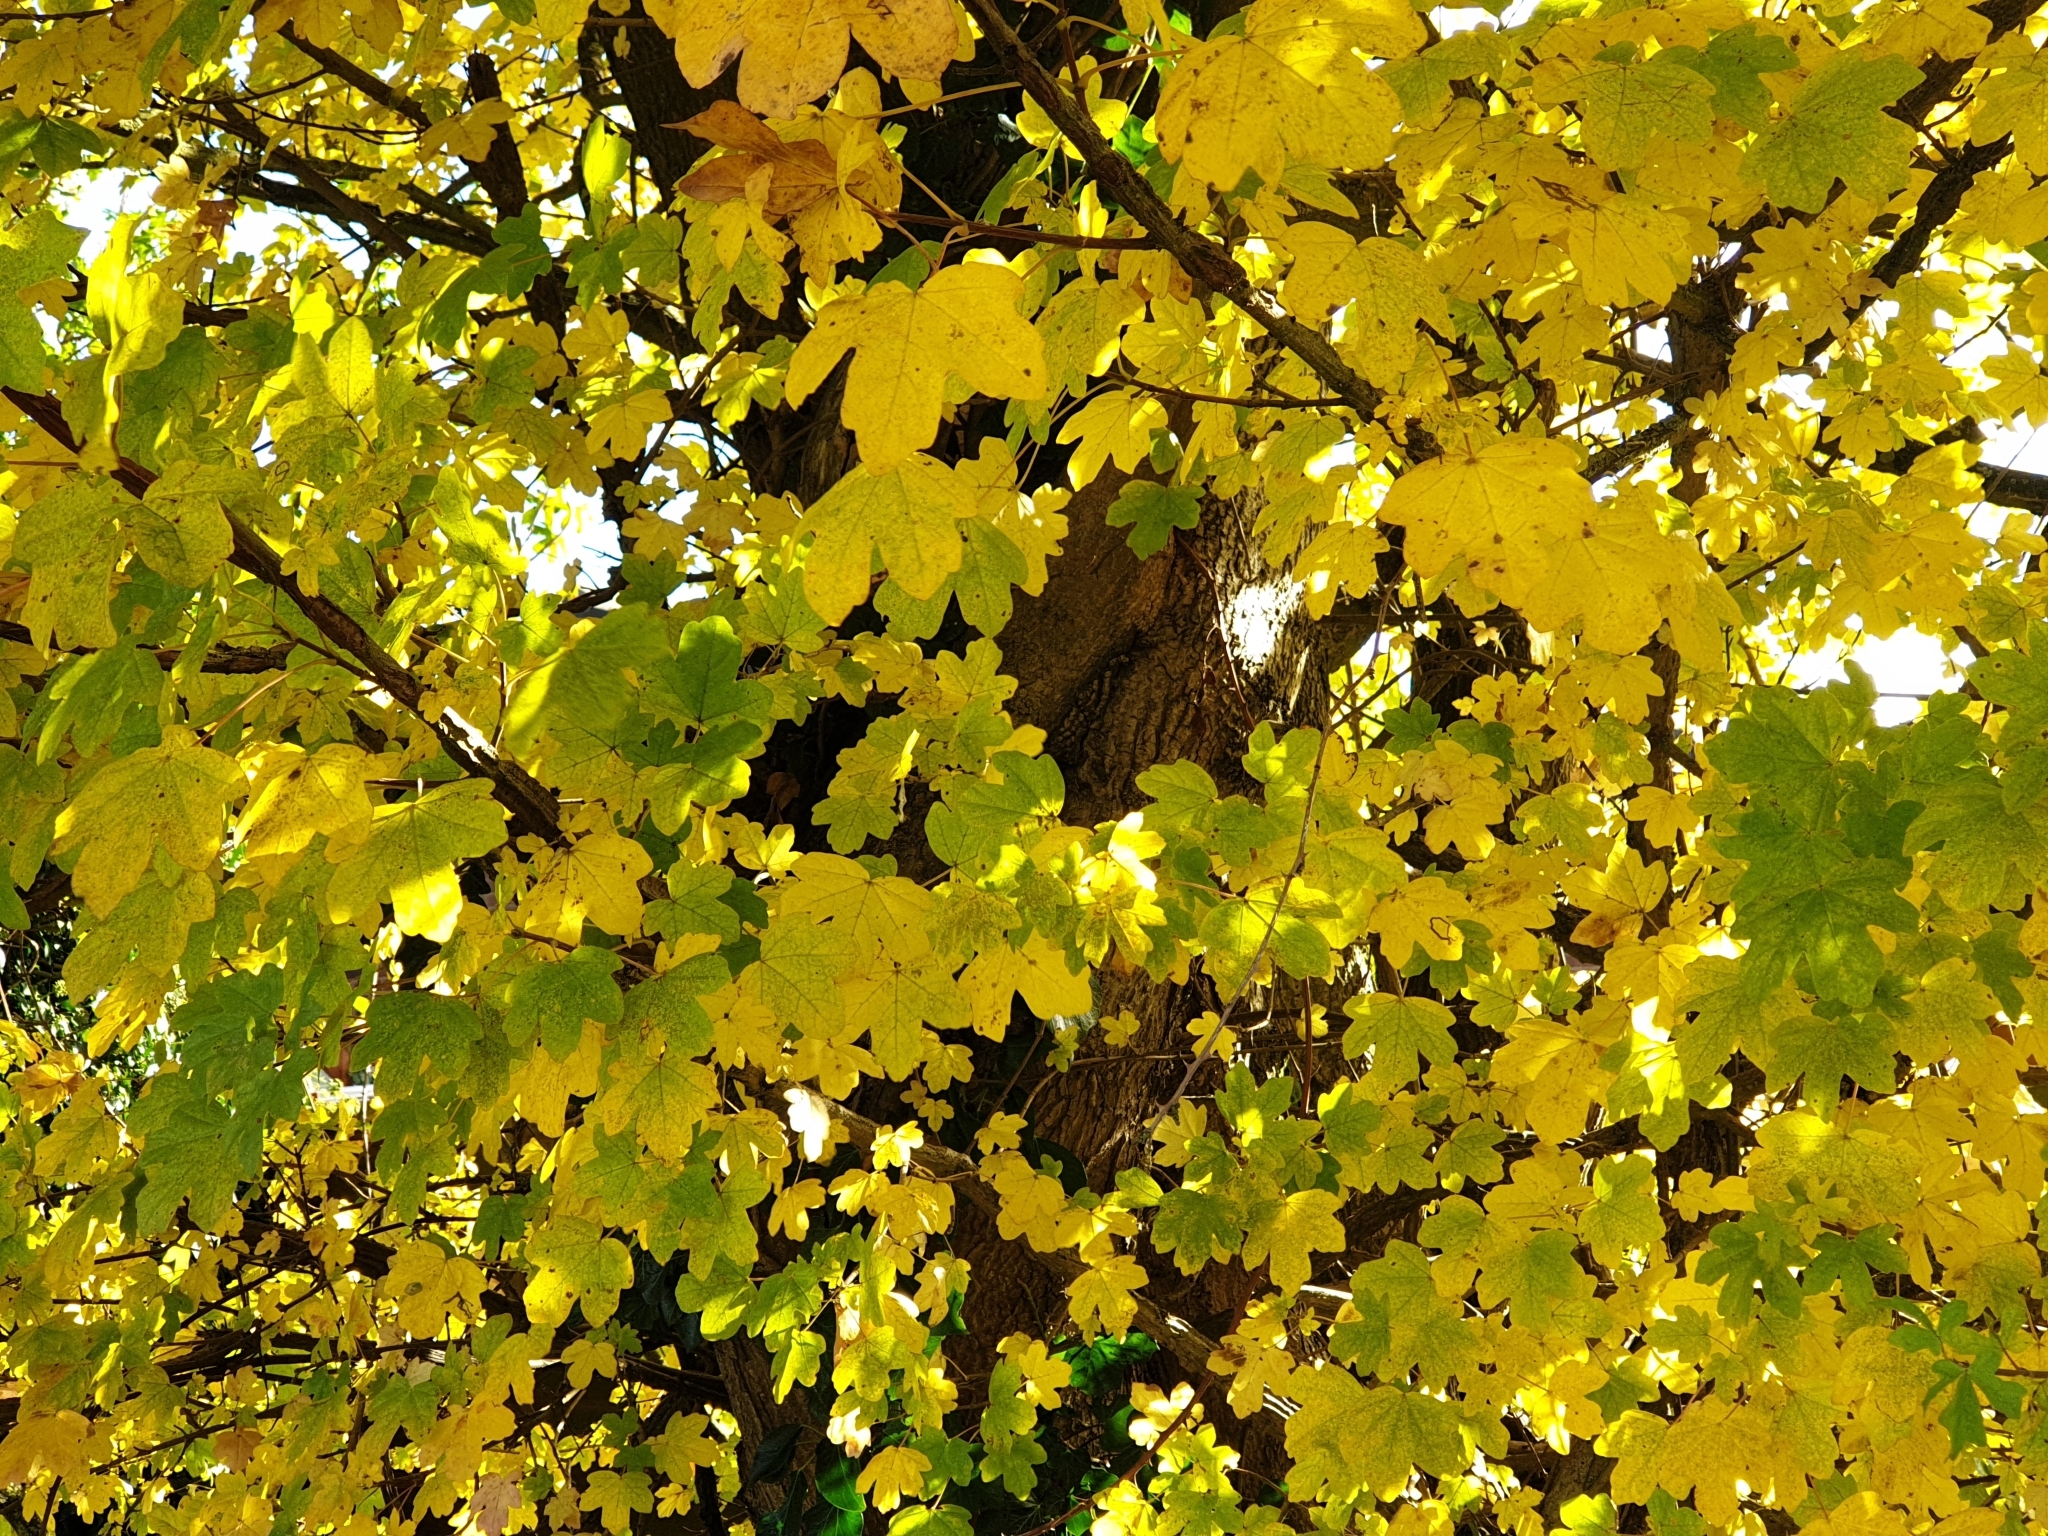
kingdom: Plantae
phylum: Tracheophyta
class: Magnoliopsida
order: Sapindales
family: Sapindaceae
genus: Acer
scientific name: Acer campestre
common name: Field maple
